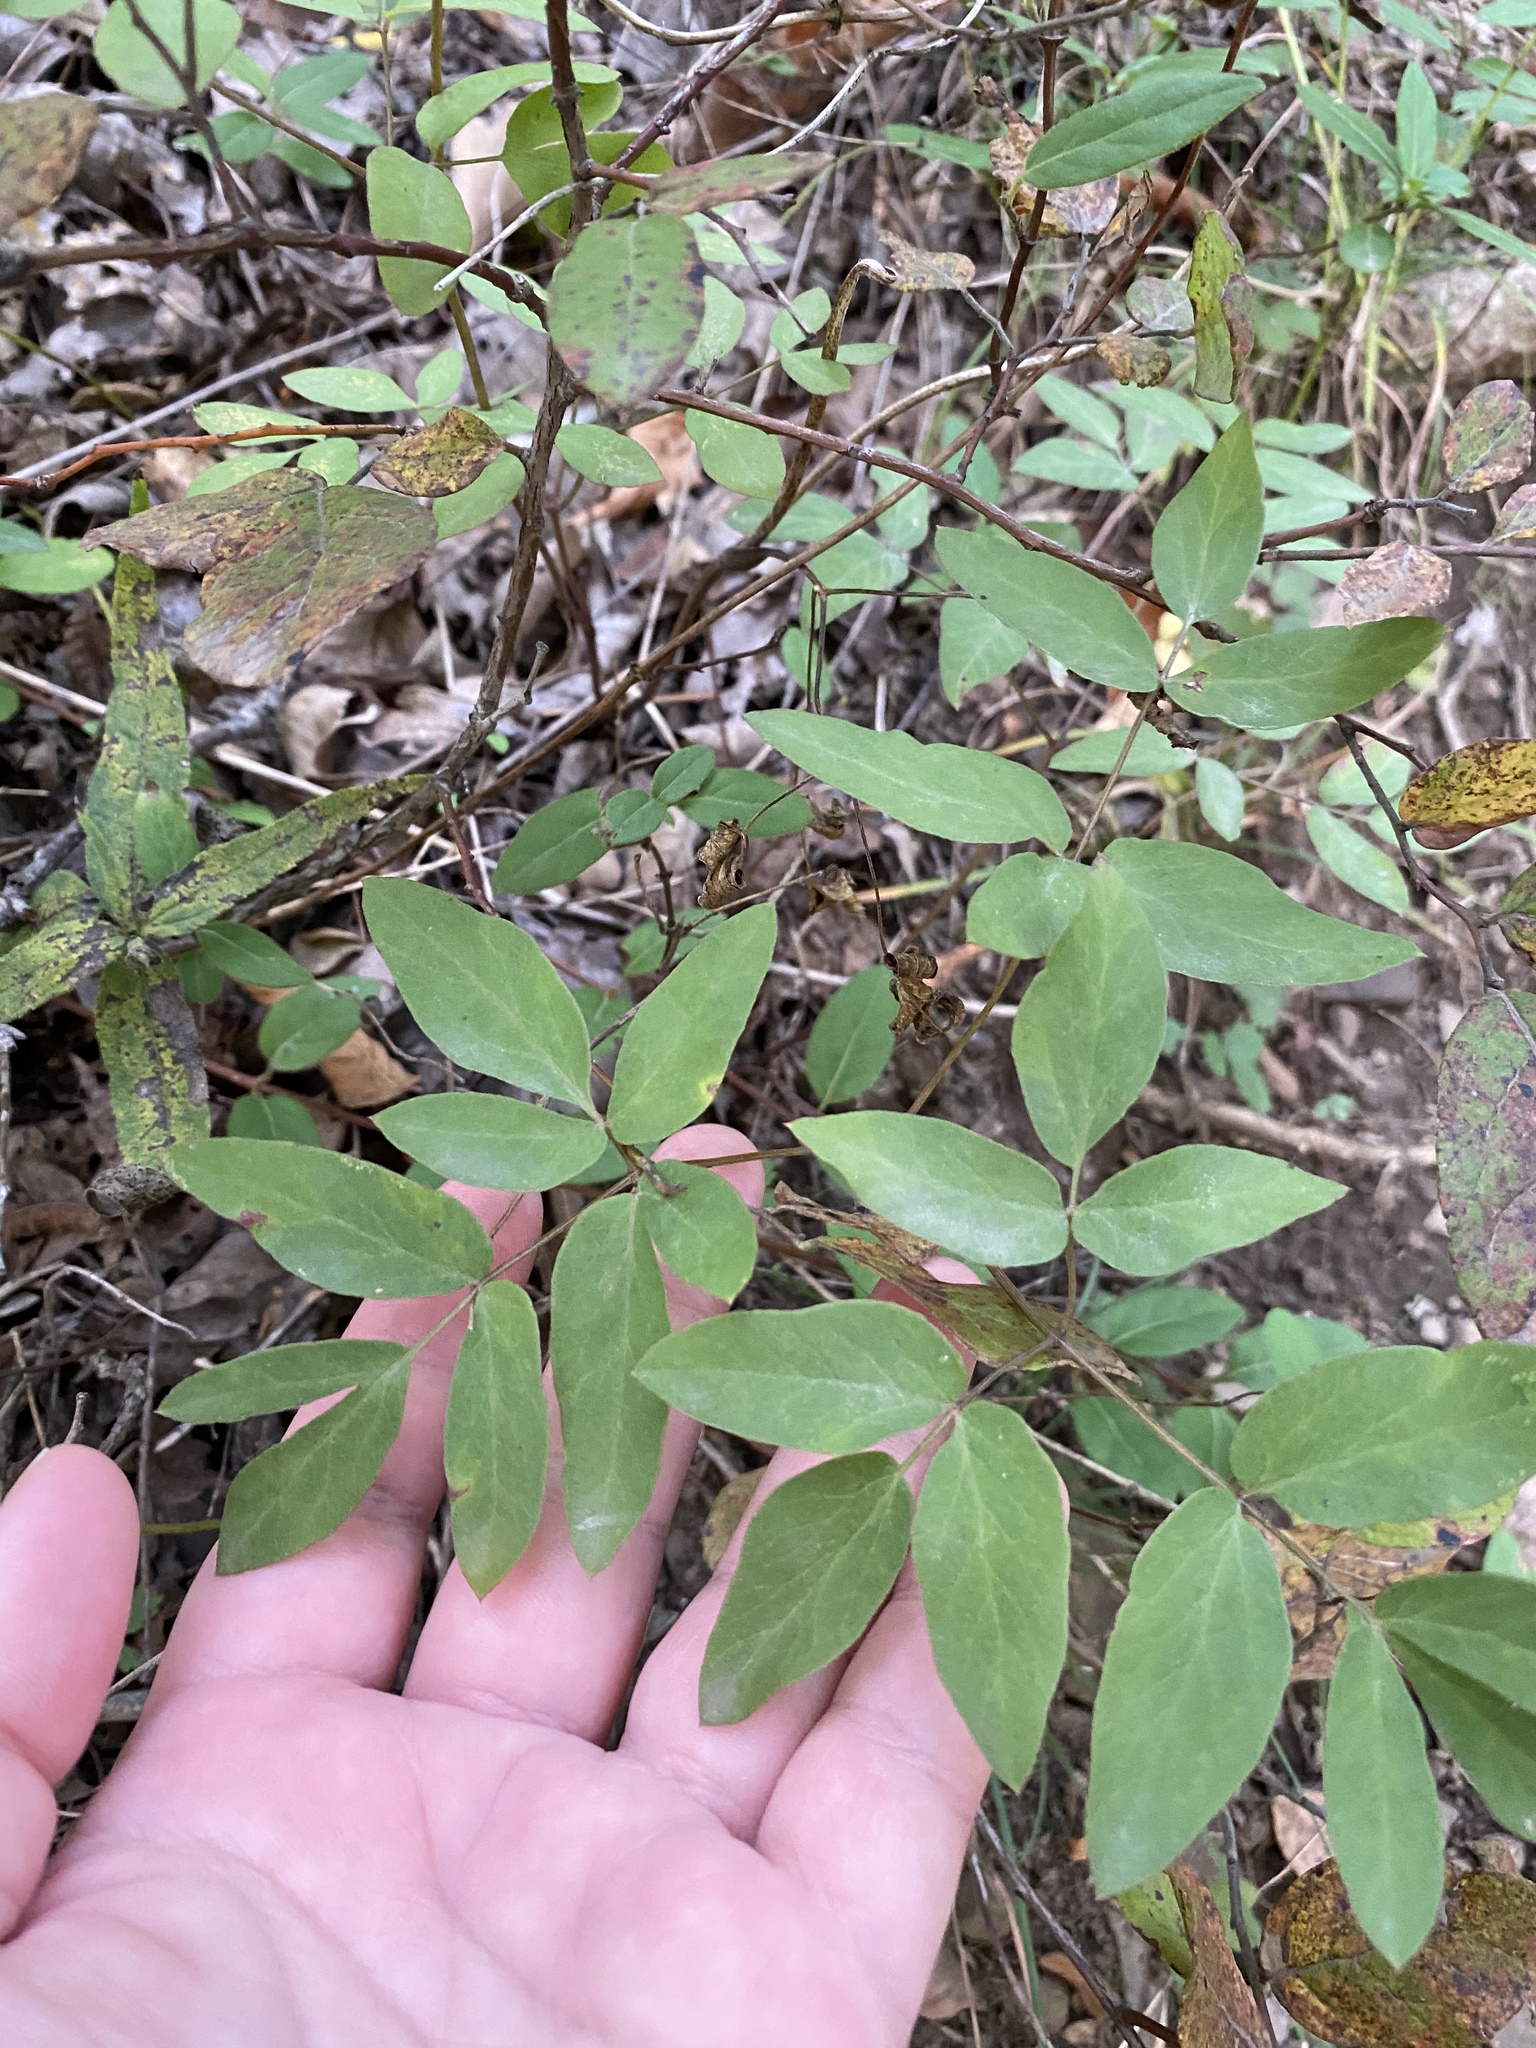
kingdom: Plantae
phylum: Tracheophyta
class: Magnoliopsida
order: Apiales
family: Apiaceae
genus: Taenidia
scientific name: Taenidia integerrima
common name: Golden alexander
